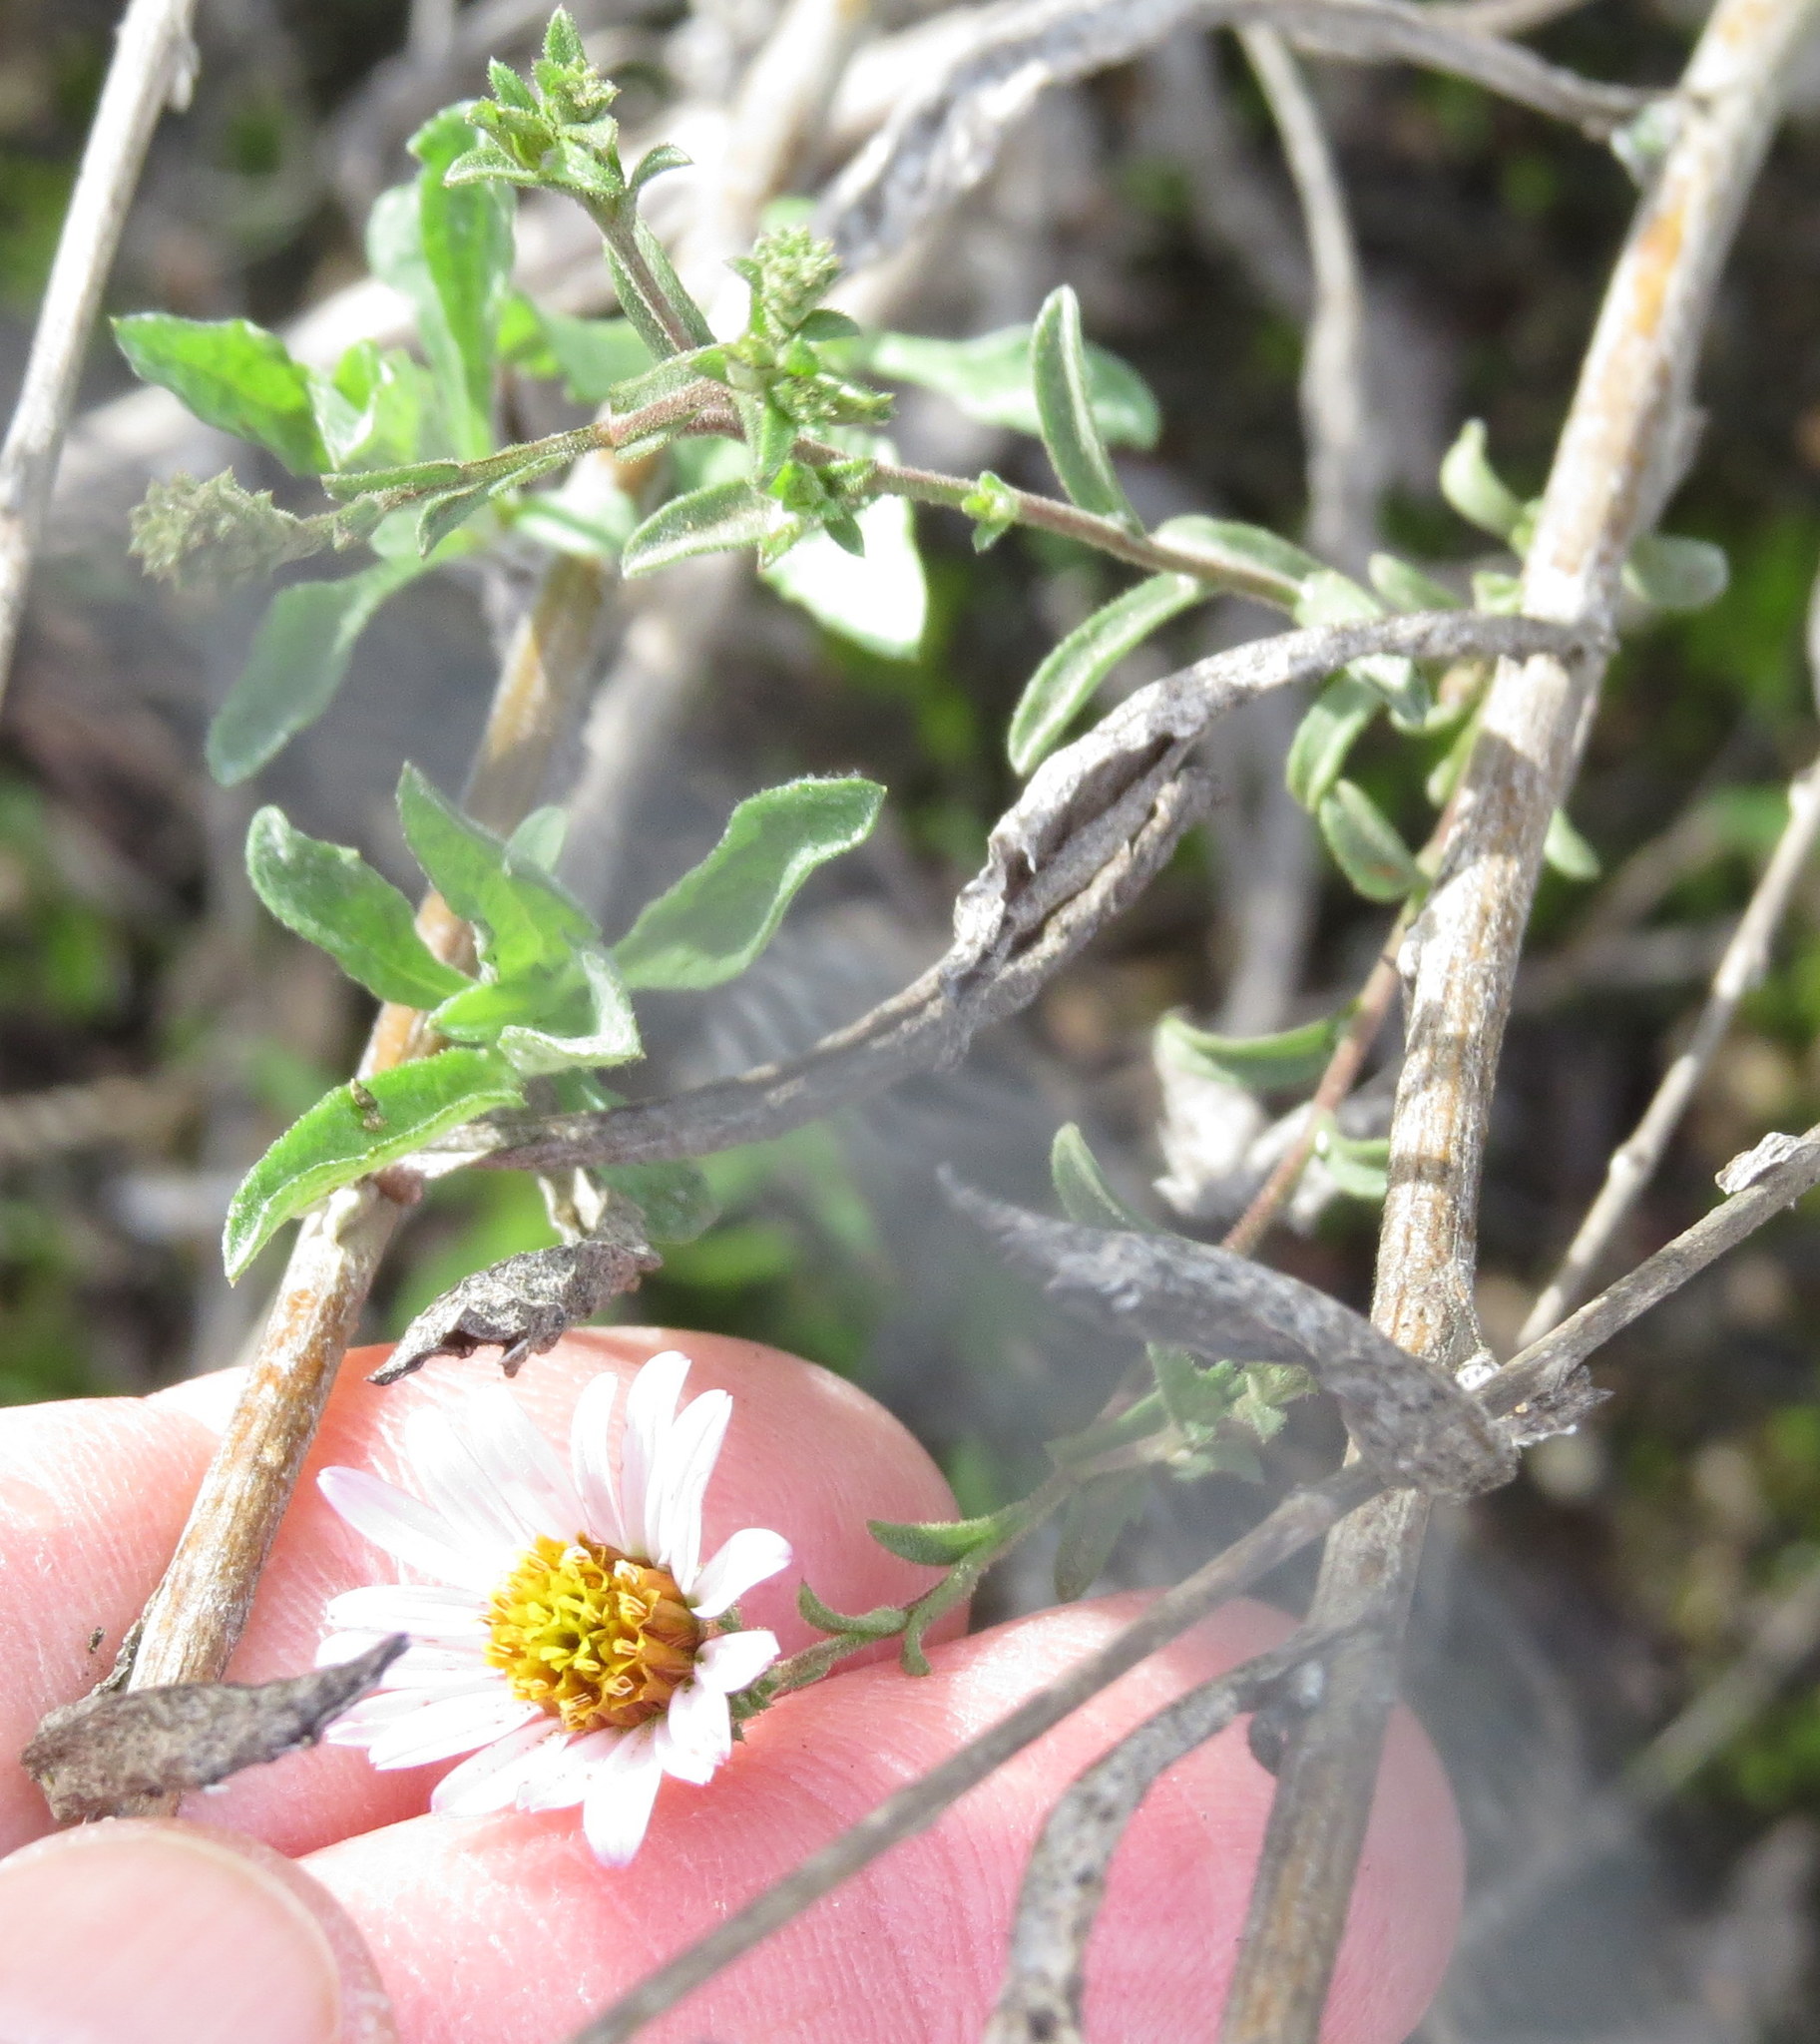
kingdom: Plantae
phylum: Tracheophyta
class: Magnoliopsida
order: Asterales
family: Asteraceae
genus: Corethrogyne
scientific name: Corethrogyne filaginifolia
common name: Sand-aster
